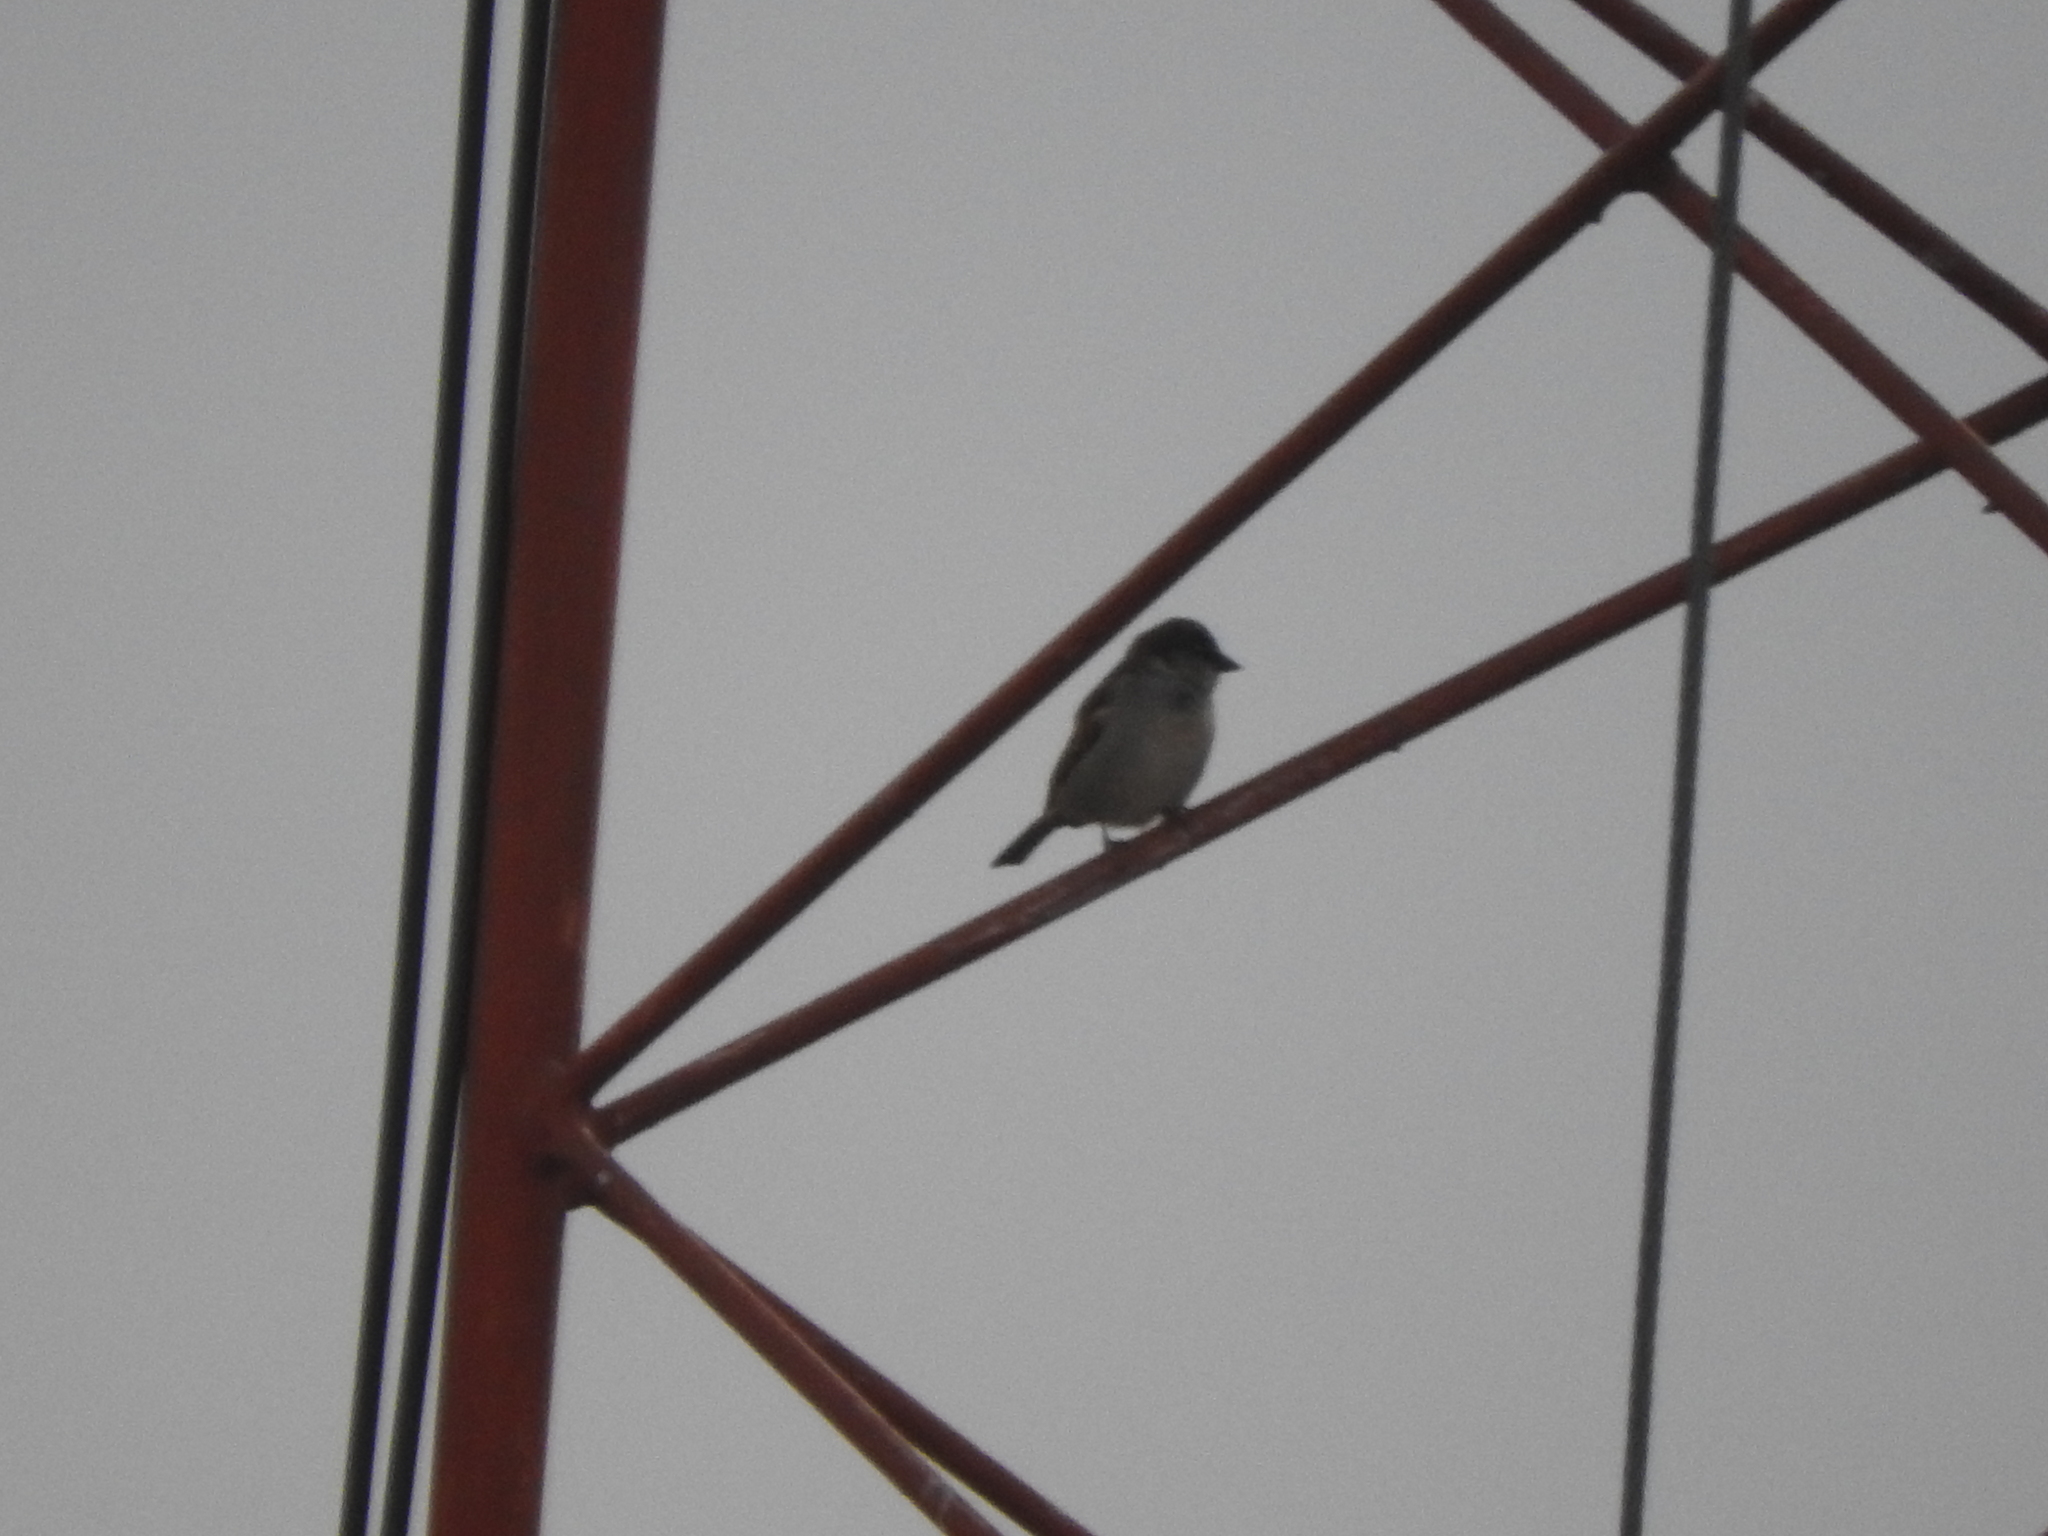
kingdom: Animalia
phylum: Chordata
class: Aves
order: Passeriformes
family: Passeridae
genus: Passer
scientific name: Passer domesticus
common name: House sparrow
